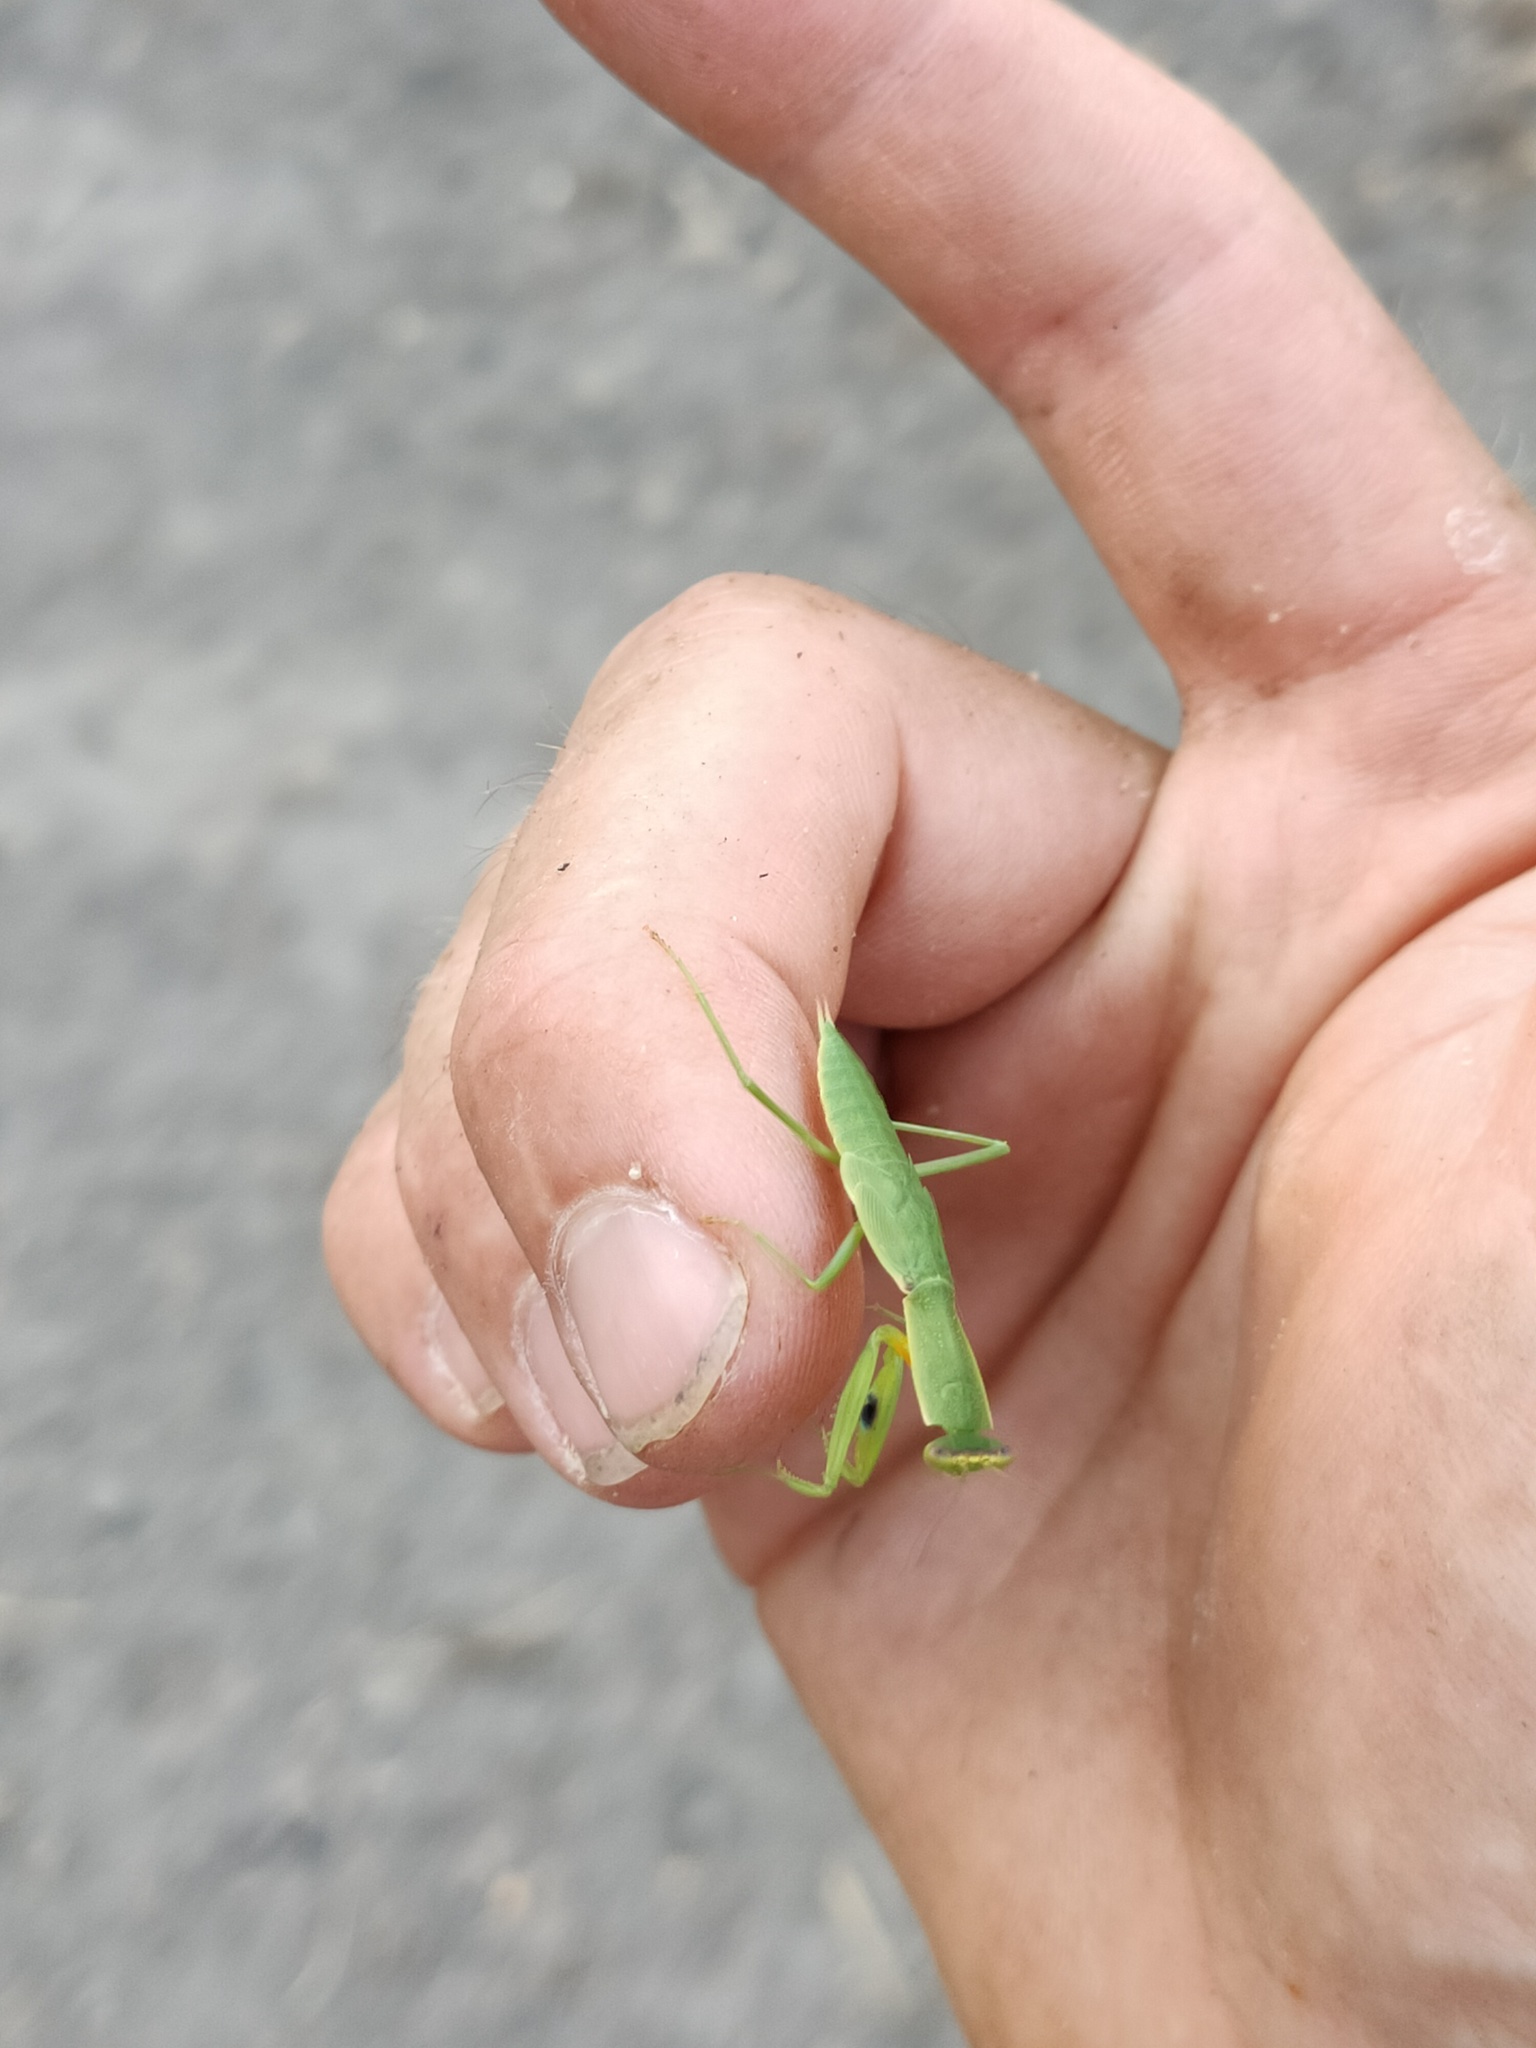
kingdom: Animalia
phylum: Arthropoda
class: Insecta
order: Mantodea
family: Mantidae
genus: Orthodera
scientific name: Orthodera novaezealandiae
